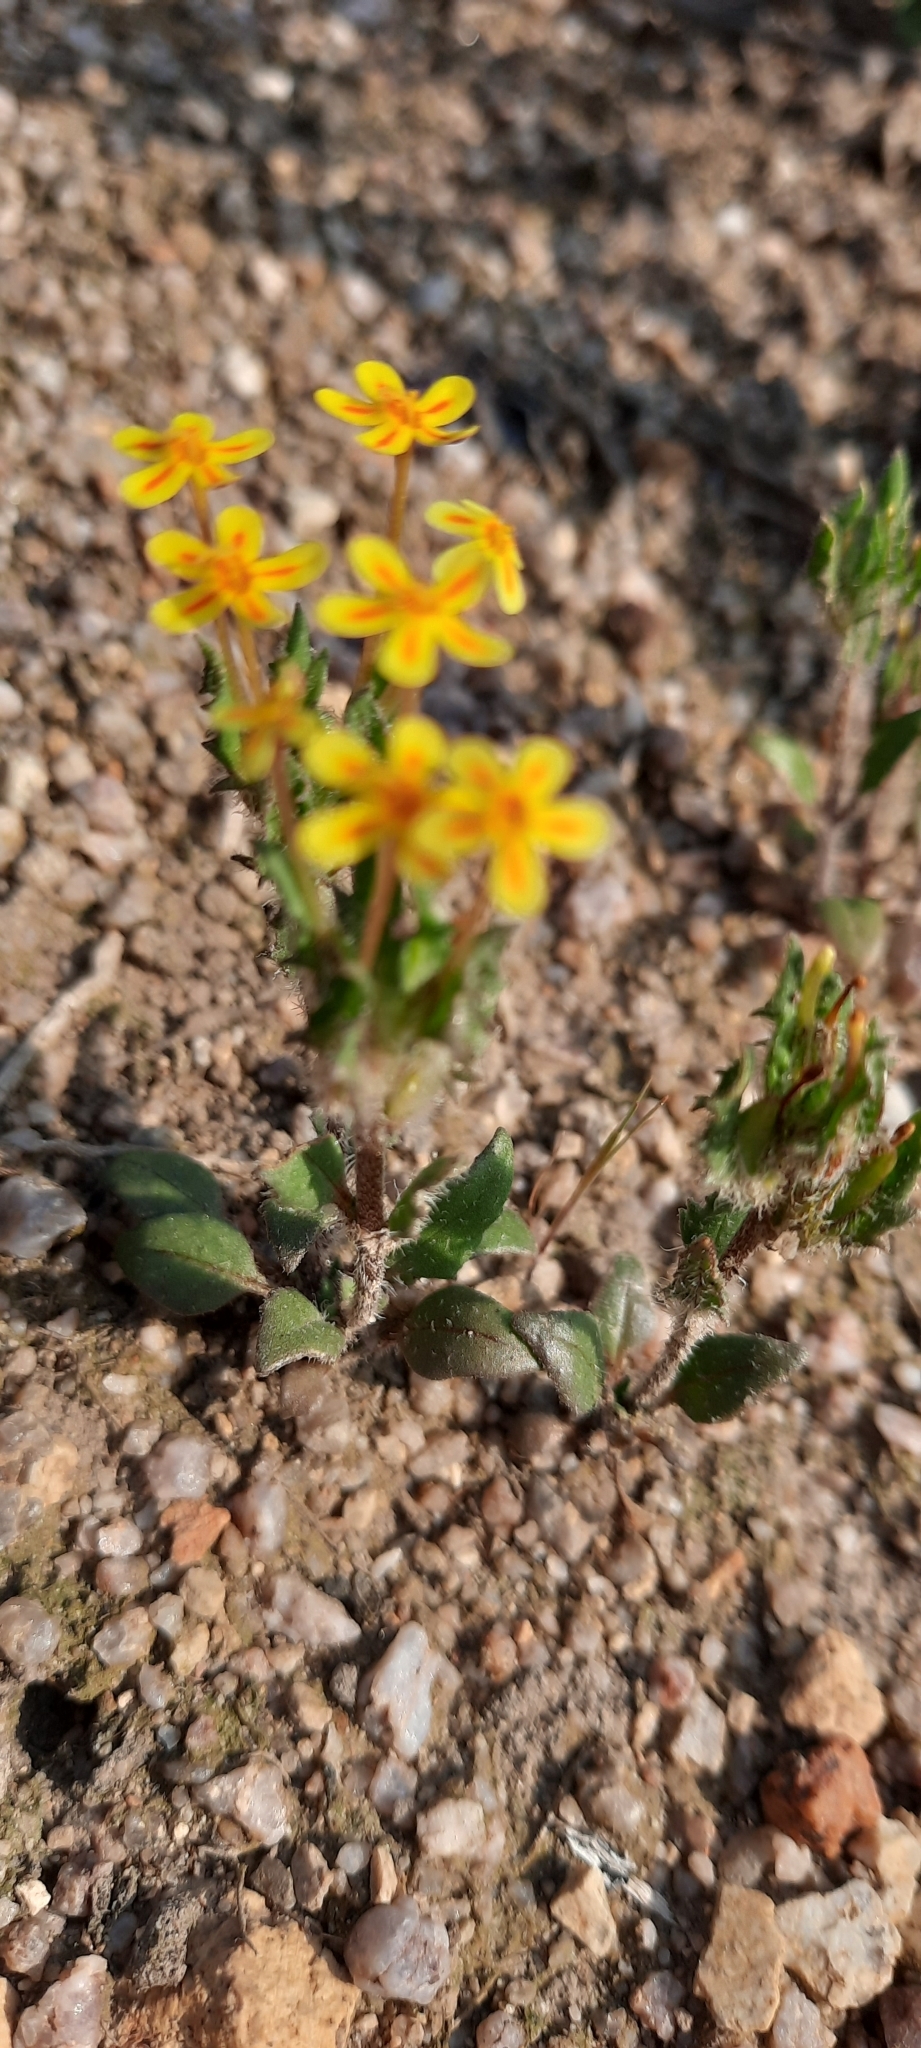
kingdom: Plantae
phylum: Tracheophyta
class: Magnoliopsida
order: Lamiales
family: Scrophulariaceae
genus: Zaluzianskya
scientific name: Zaluzianskya divaricata
